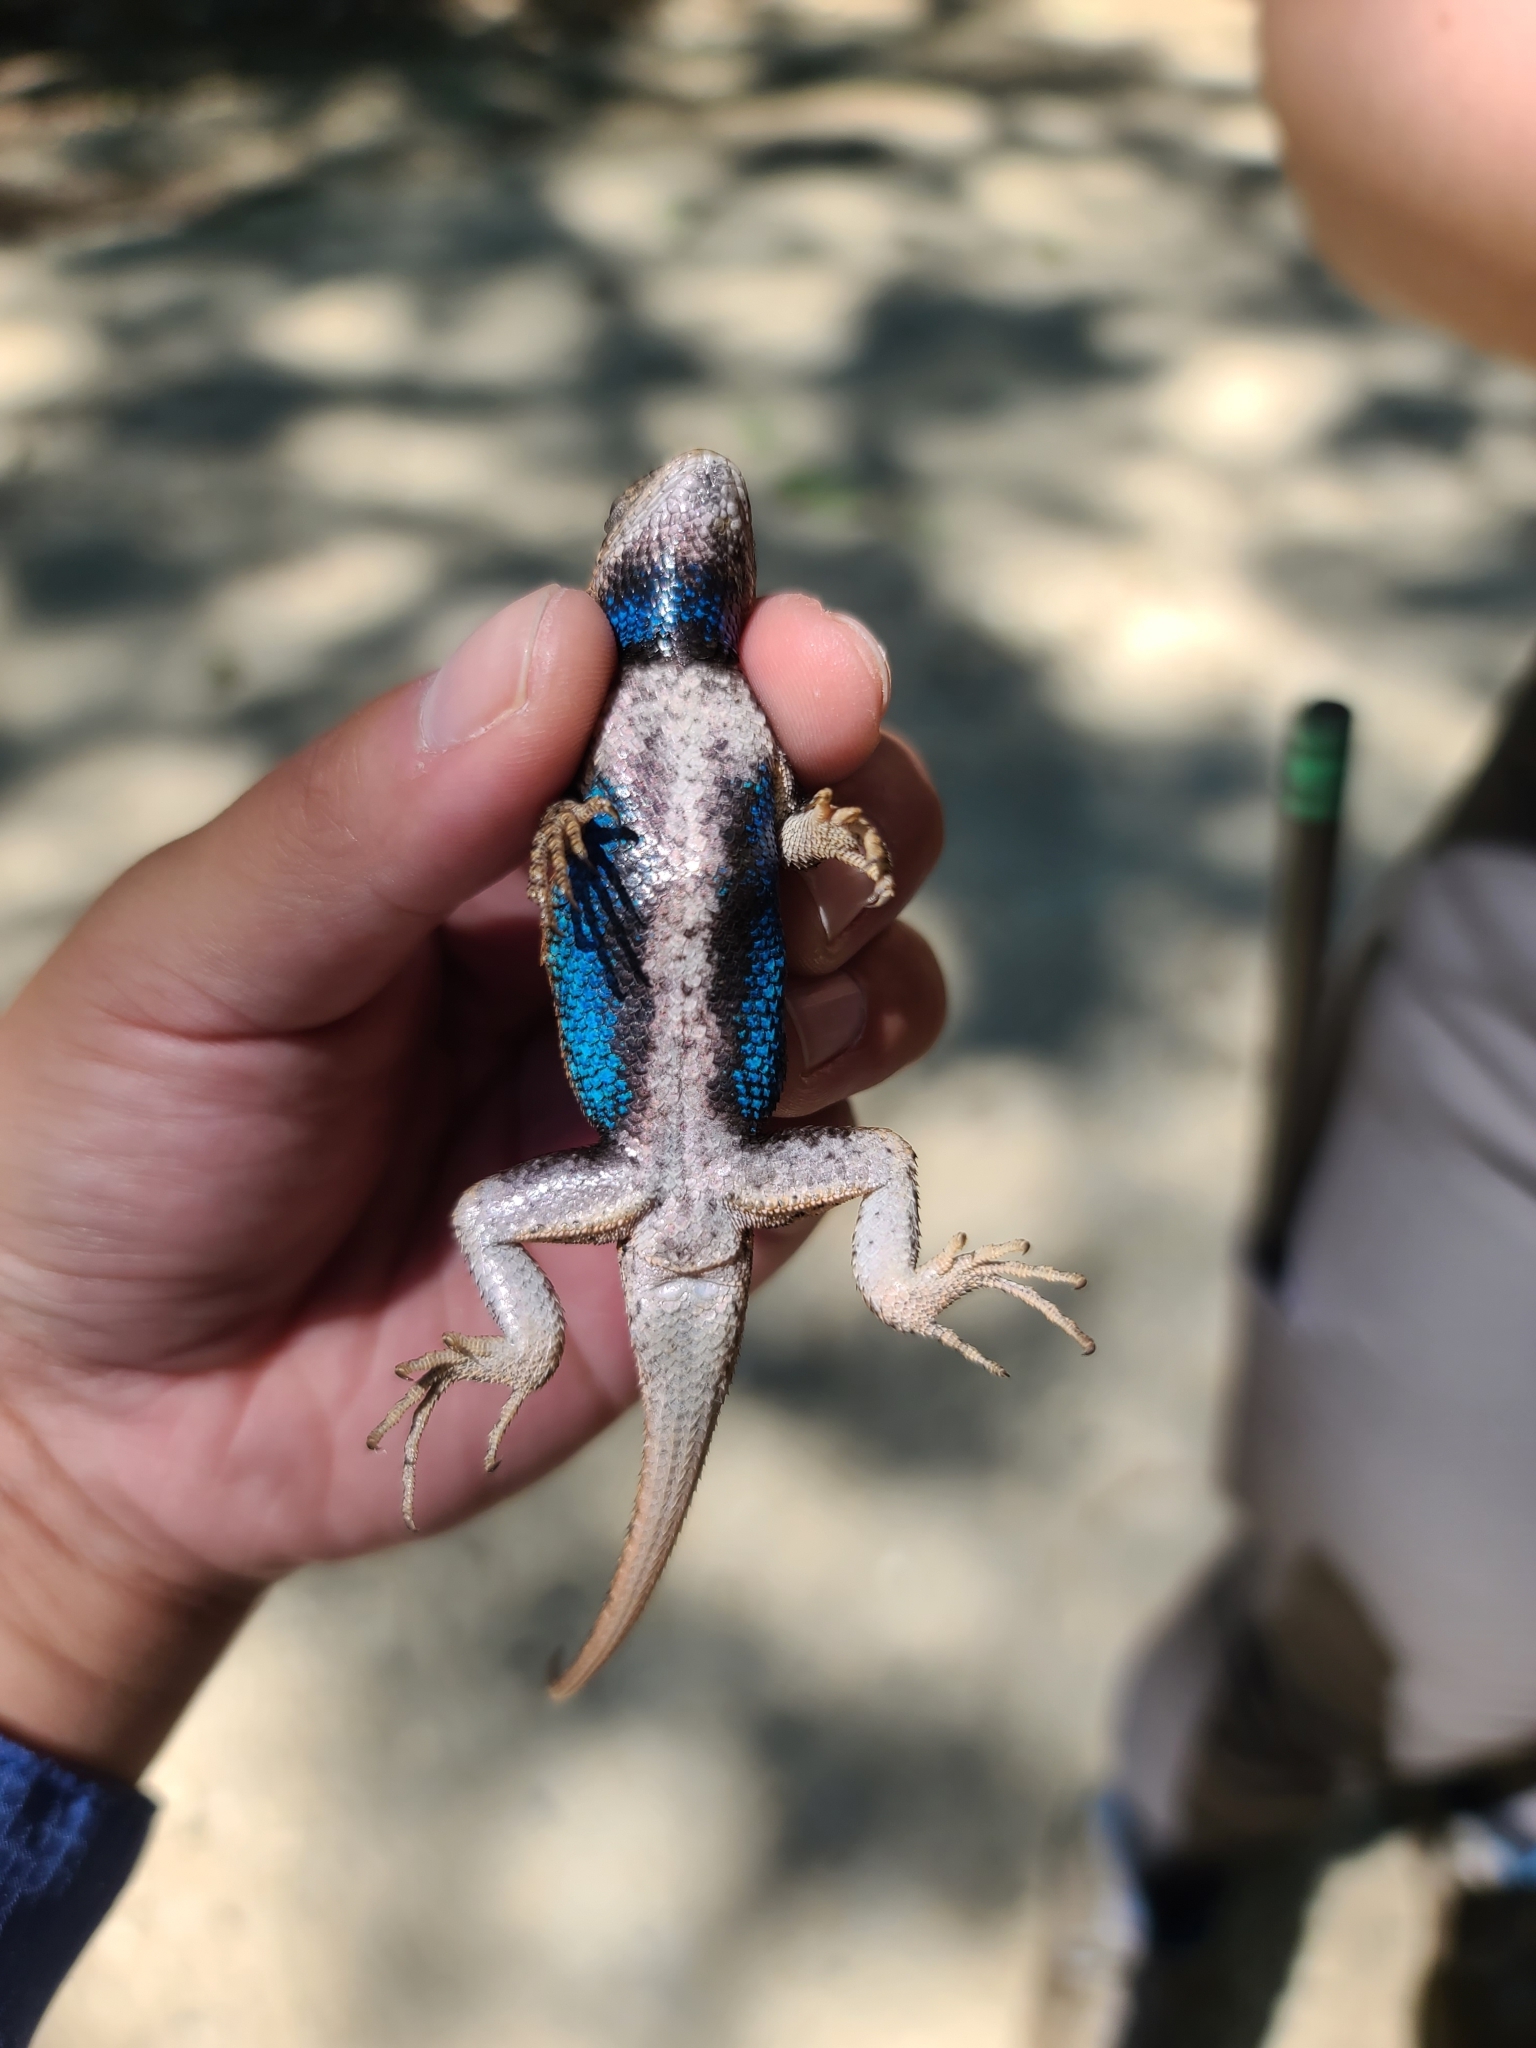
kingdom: Animalia
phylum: Chordata
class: Squamata
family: Phrynosomatidae
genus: Sceloporus
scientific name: Sceloporus undulatus
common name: Eastern fence lizard
